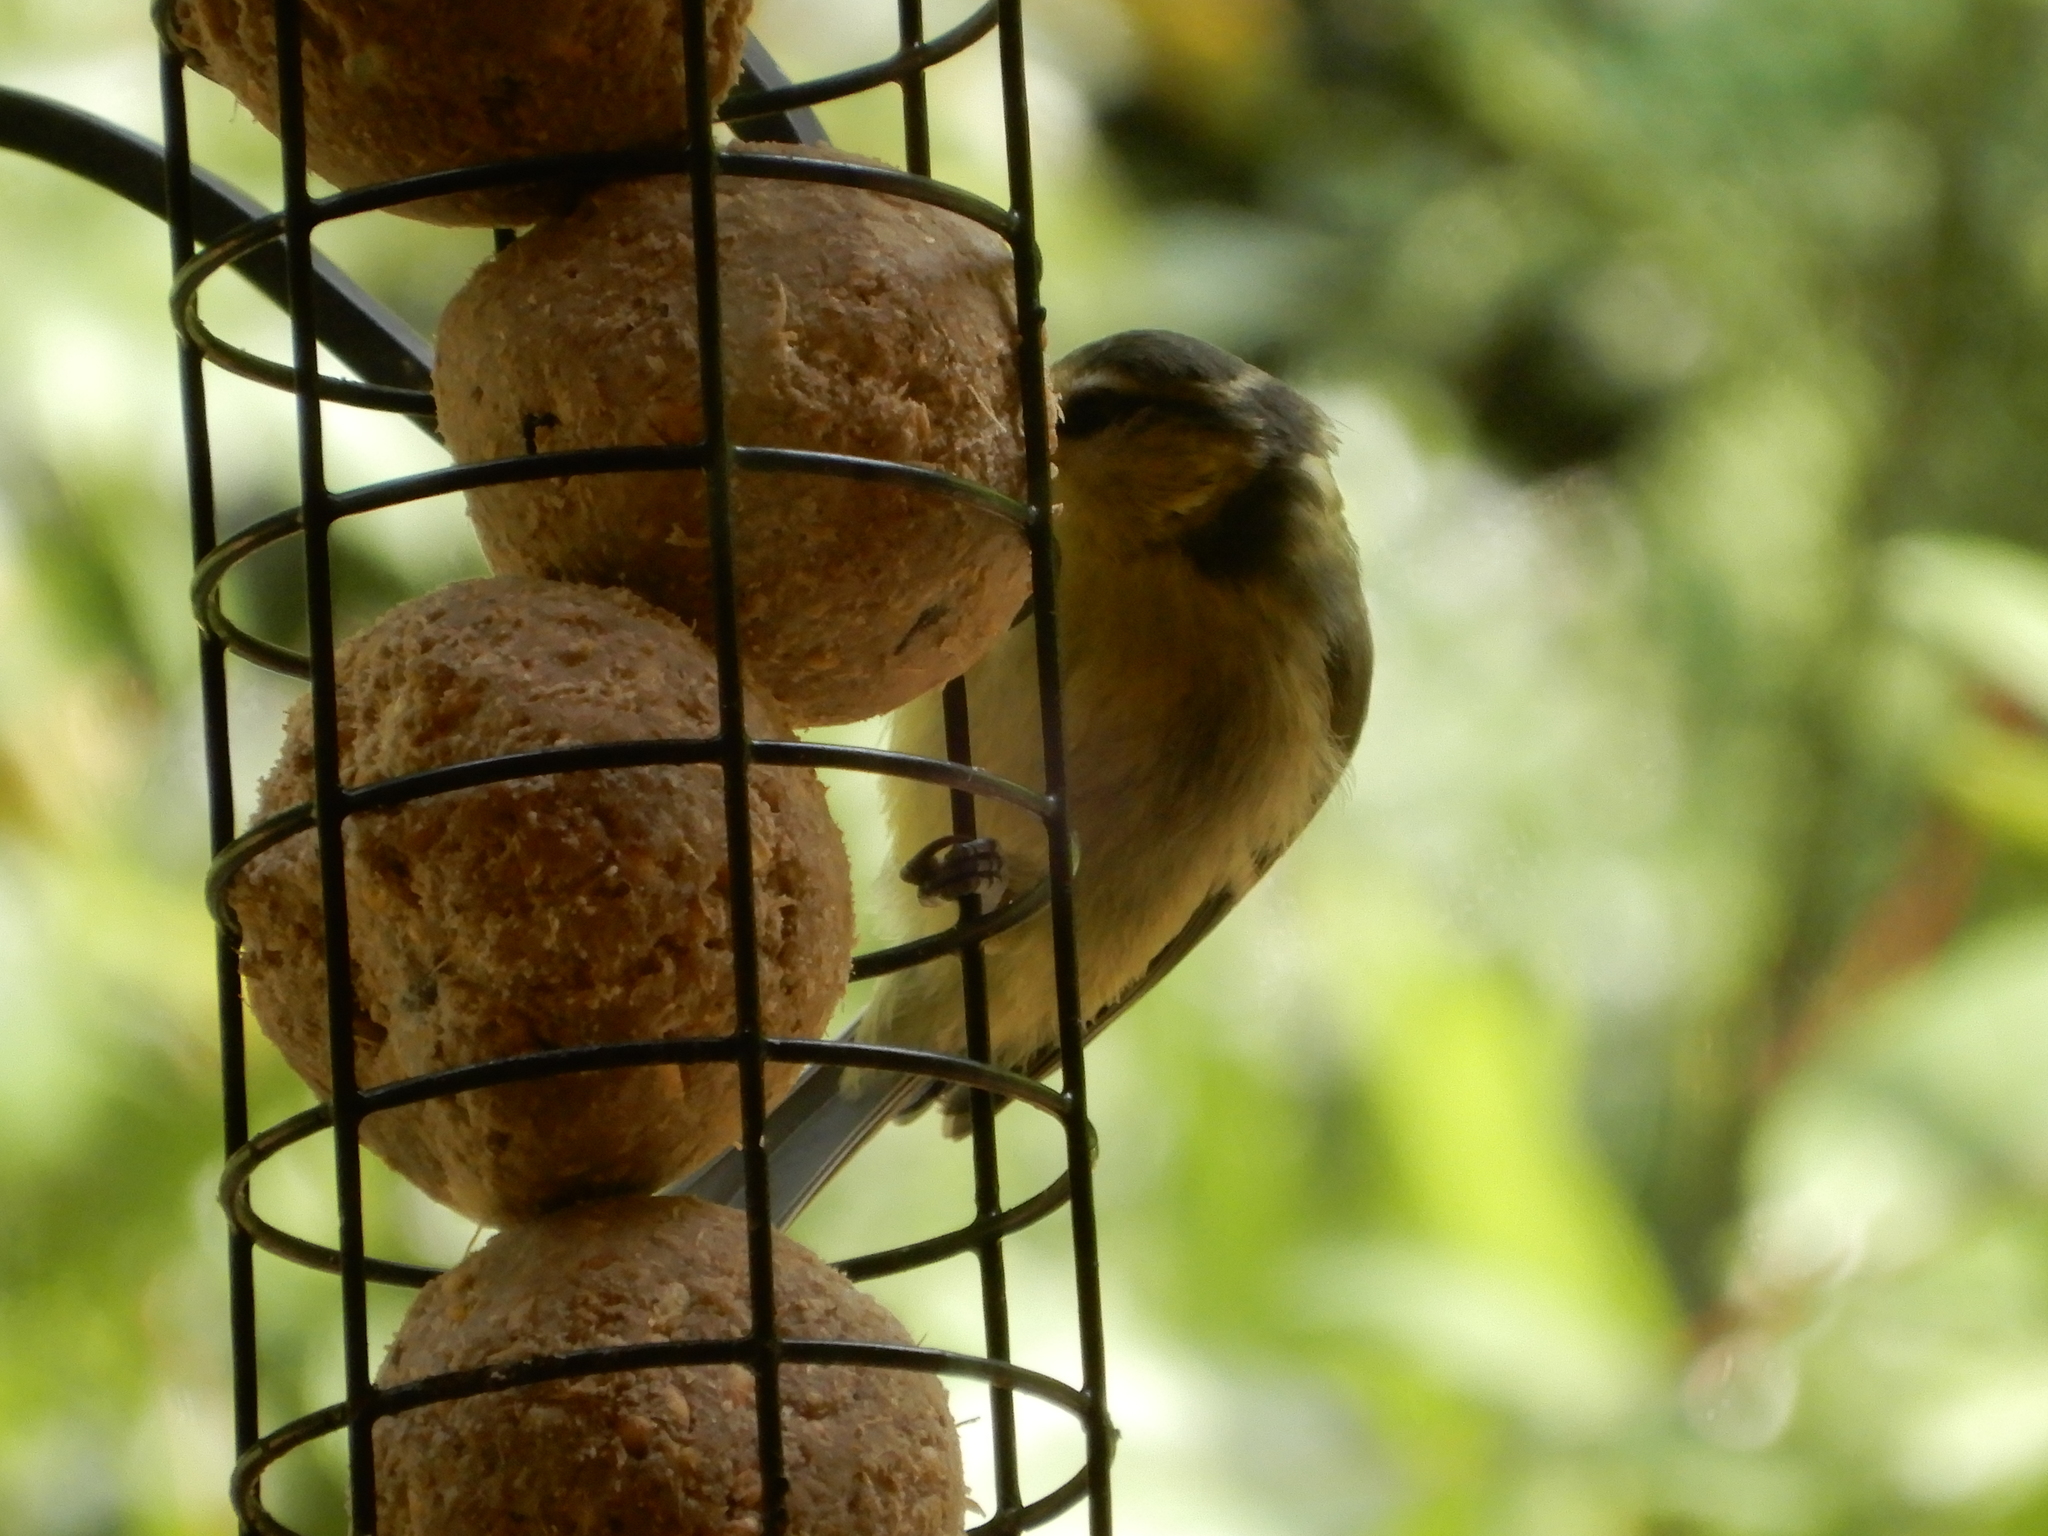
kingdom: Animalia
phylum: Chordata
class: Aves
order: Passeriformes
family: Paridae
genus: Cyanistes
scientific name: Cyanistes caeruleus
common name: Eurasian blue tit
